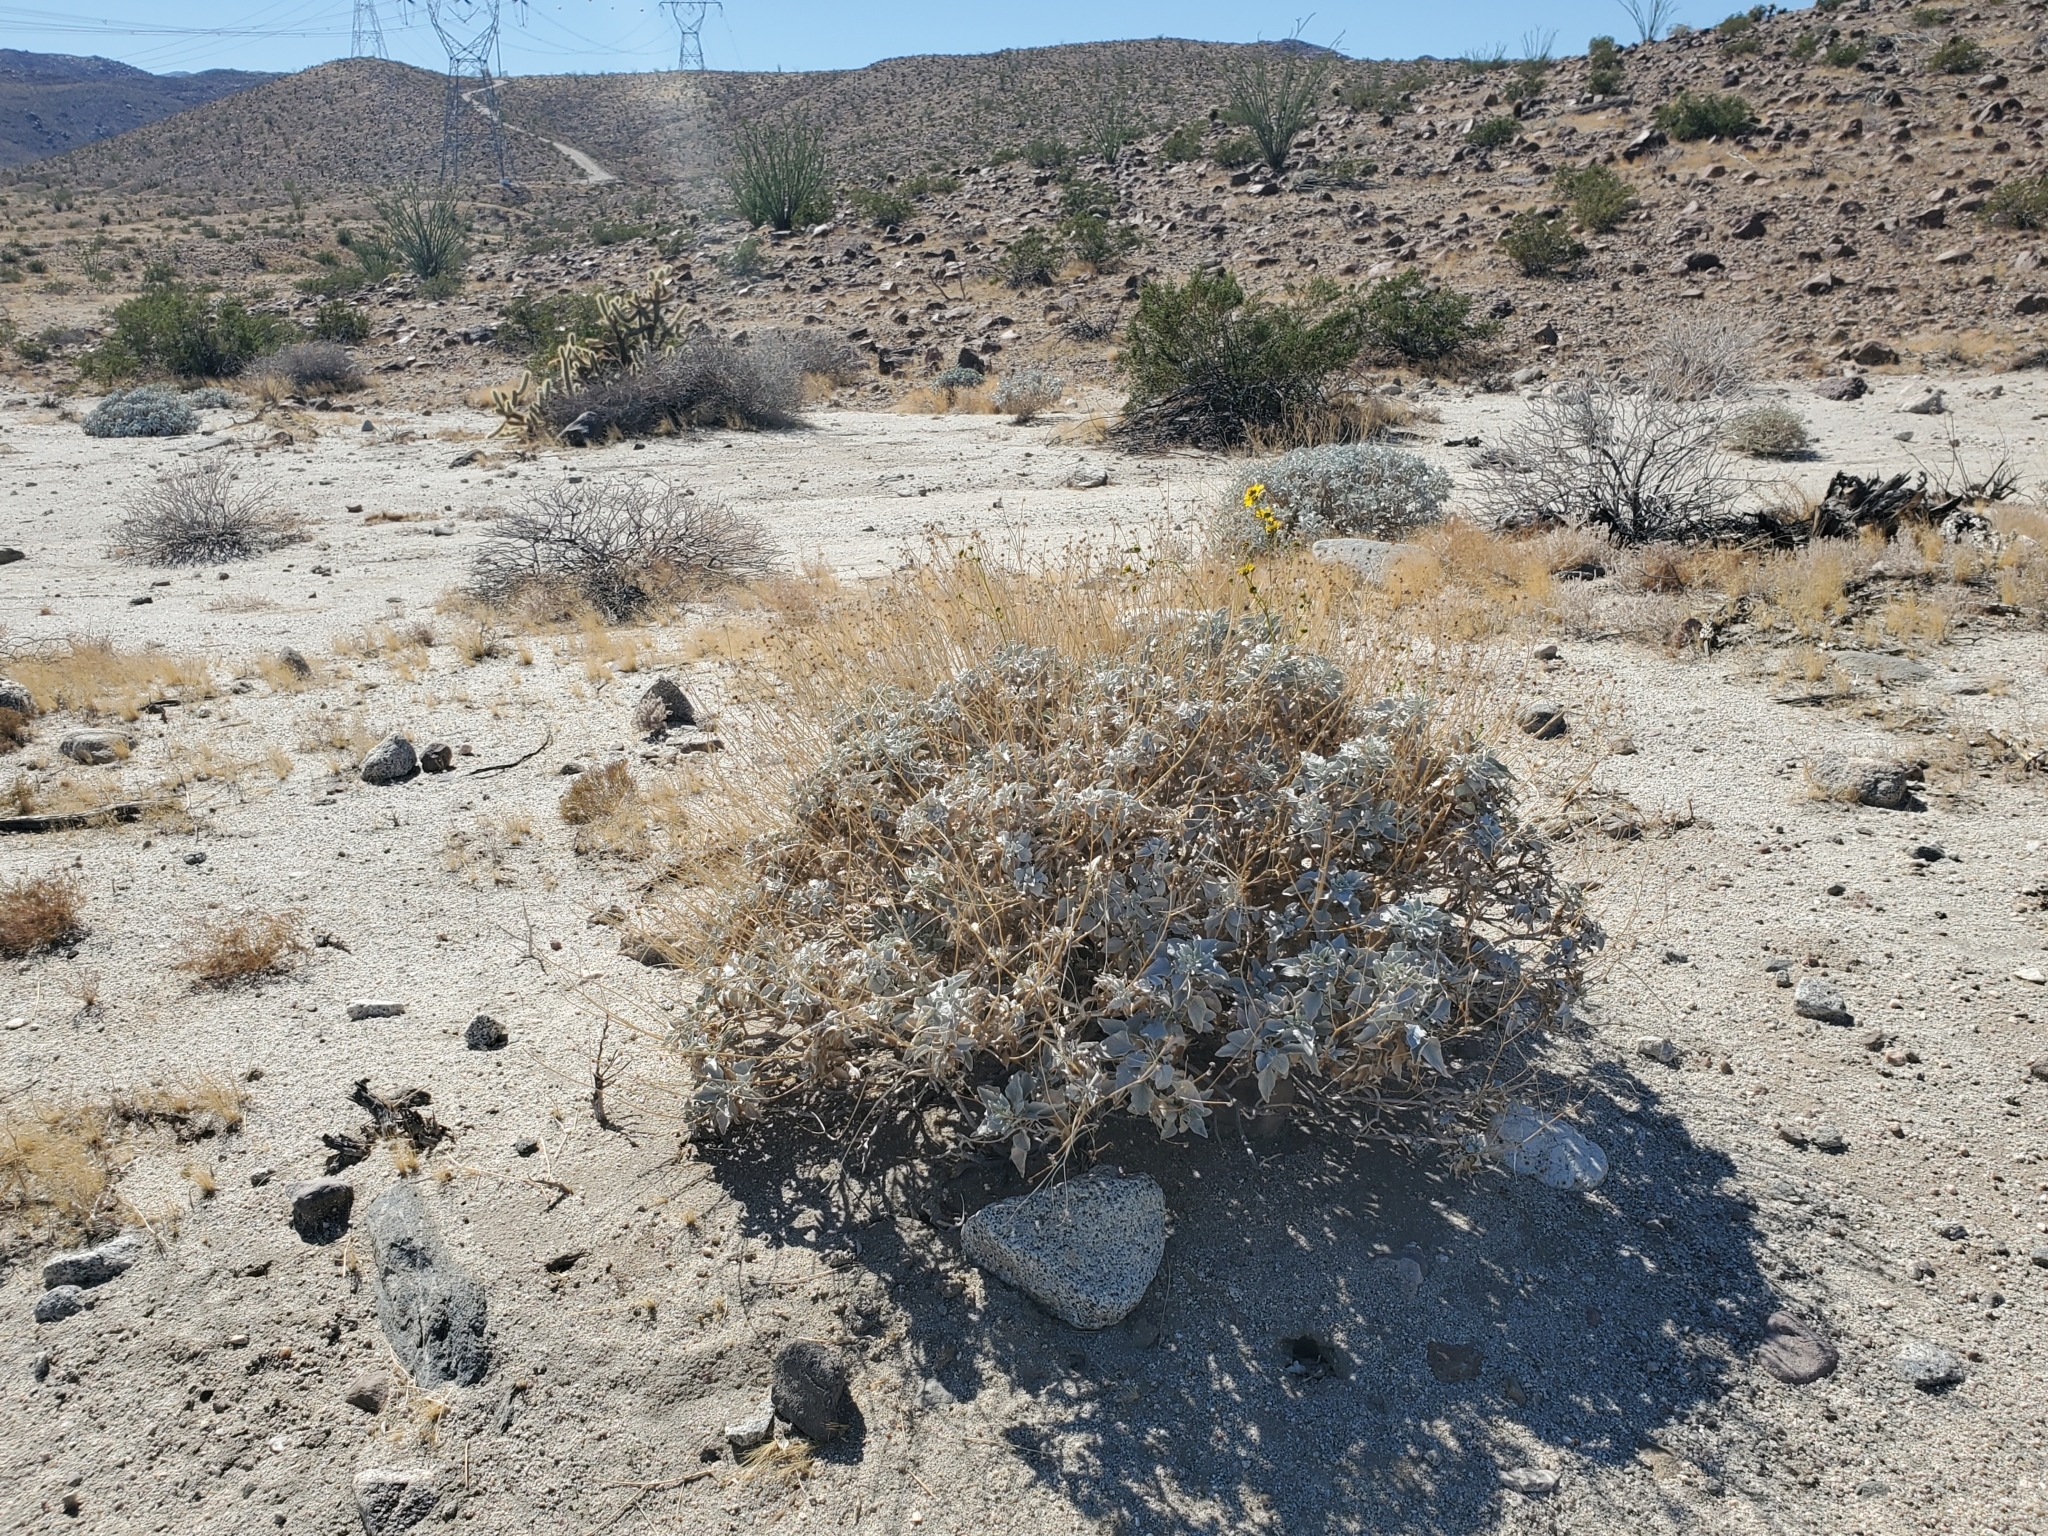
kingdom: Plantae
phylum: Tracheophyta
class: Magnoliopsida
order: Asterales
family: Asteraceae
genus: Encelia
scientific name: Encelia farinosa
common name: Brittlebush
